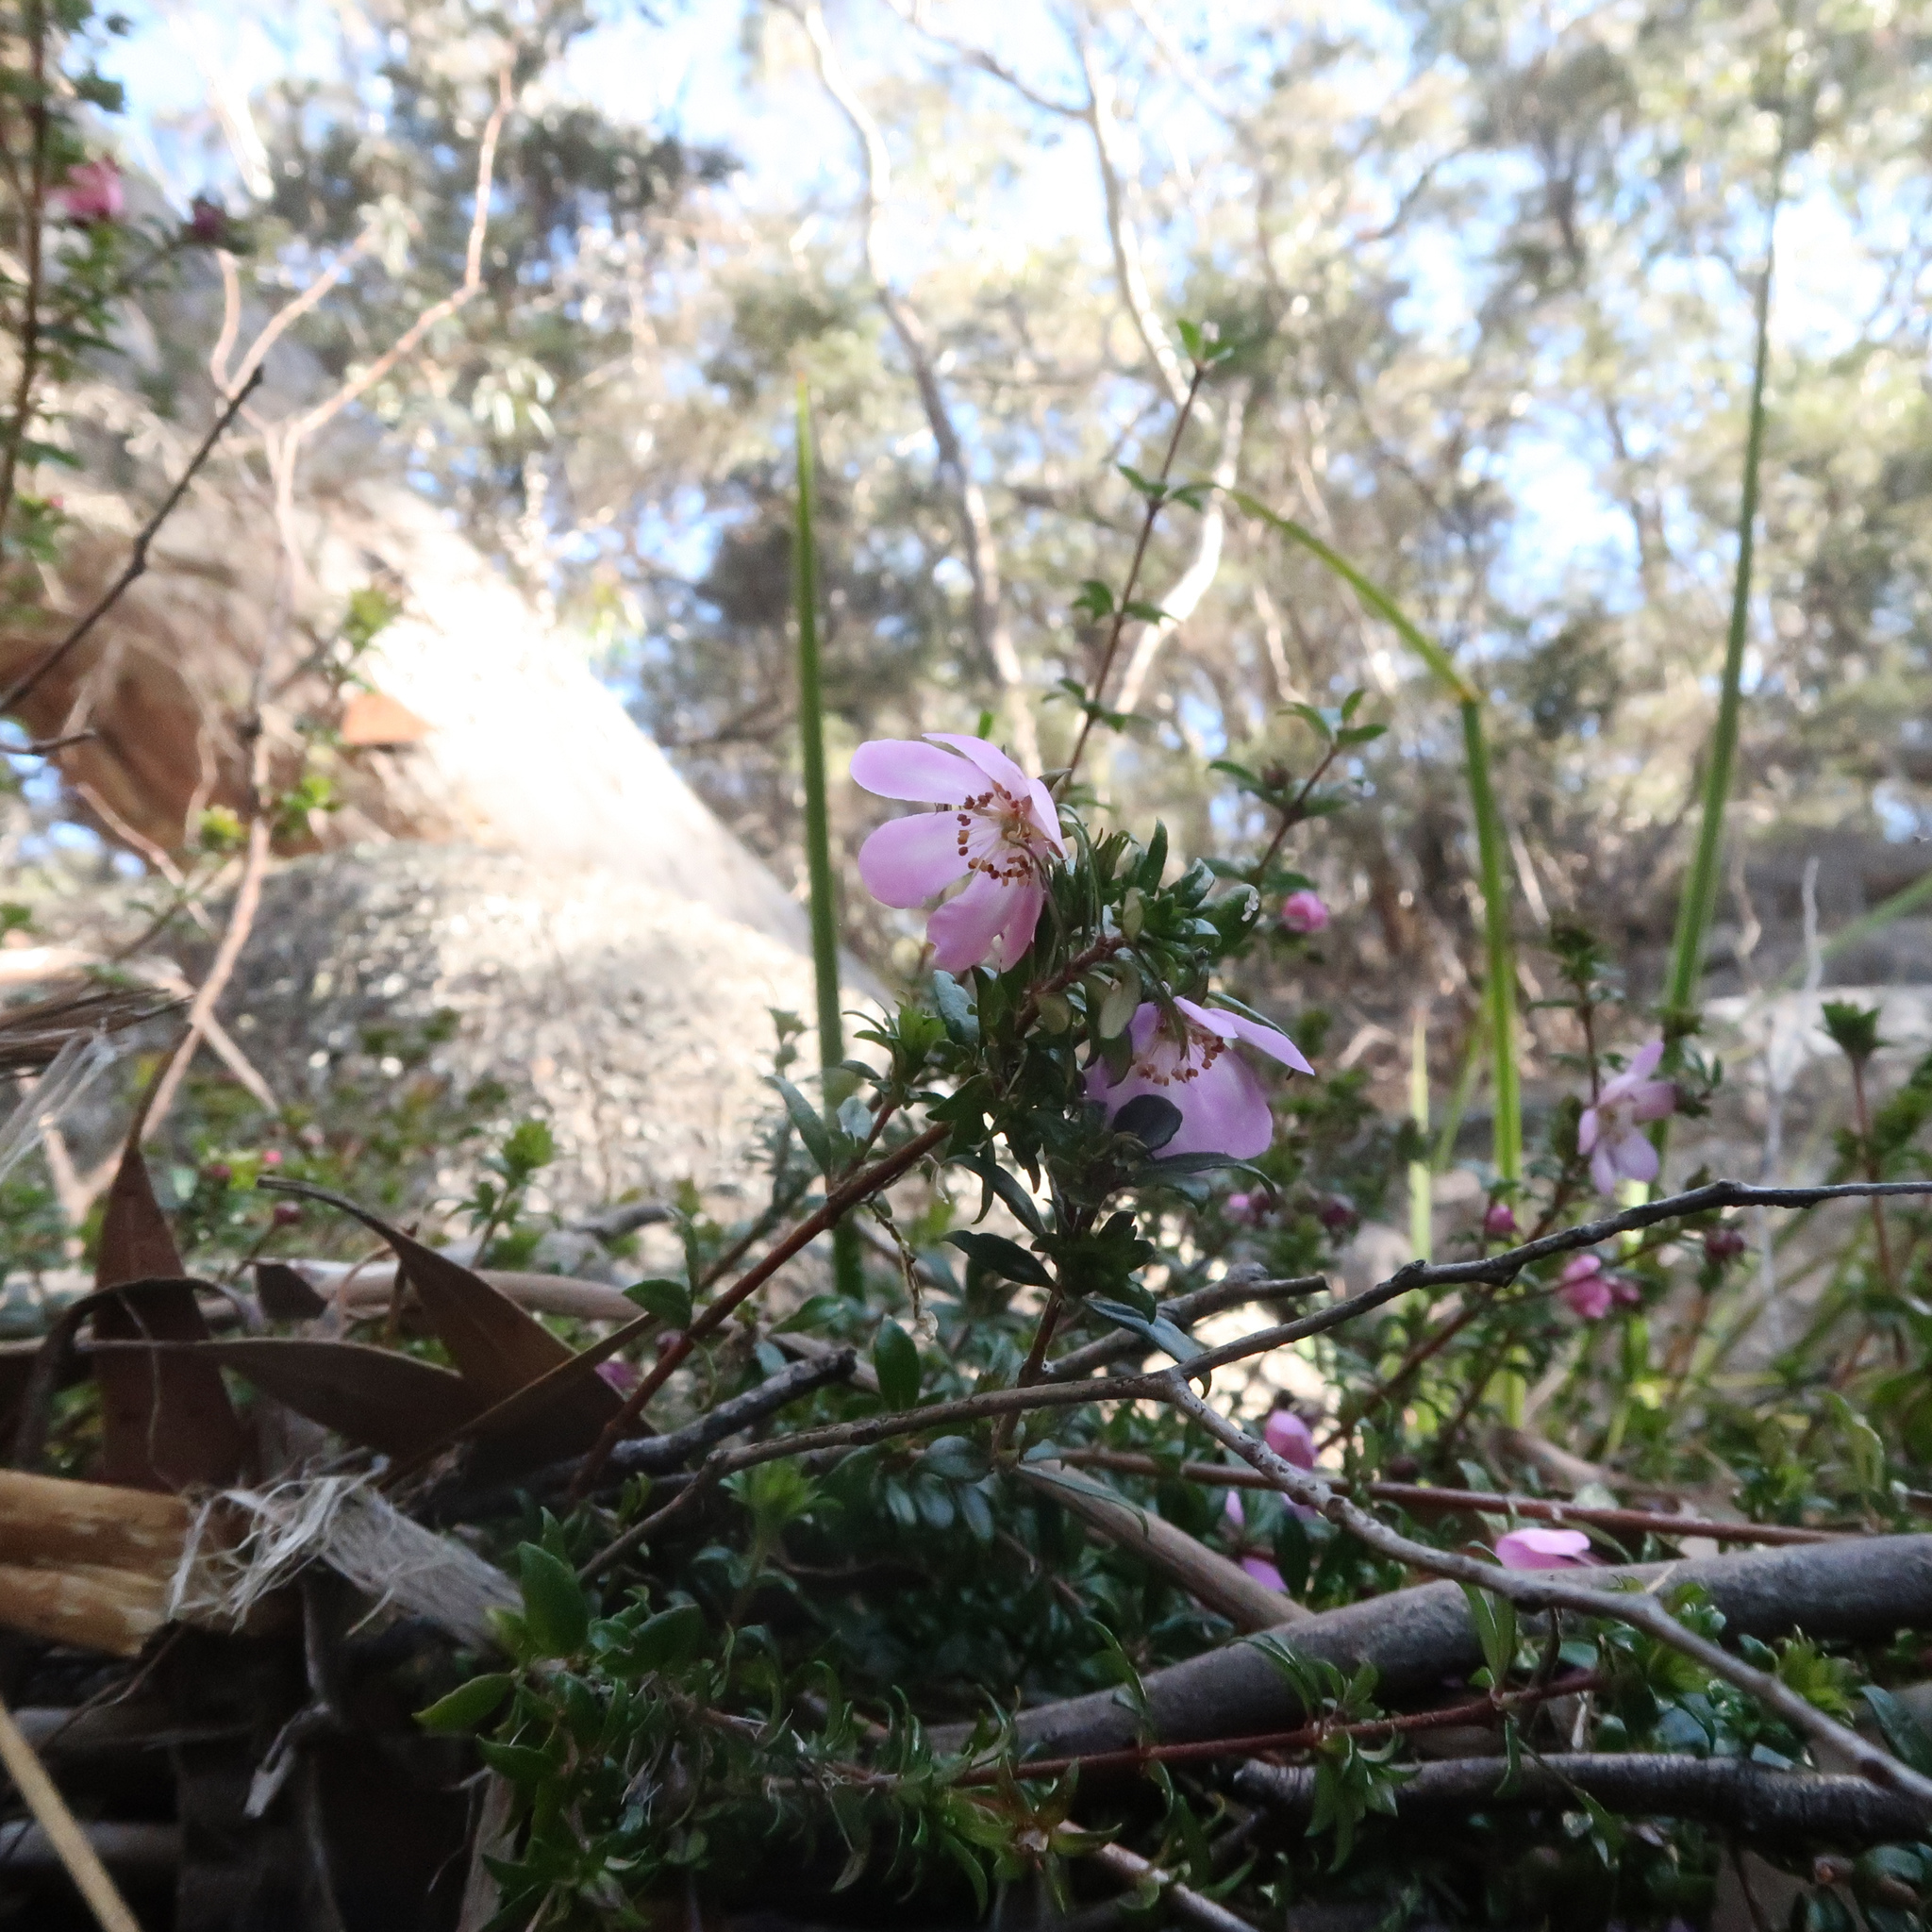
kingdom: Plantae
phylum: Tracheophyta
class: Magnoliopsida
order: Oxalidales
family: Cunoniaceae
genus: Bauera
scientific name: Bauera rubioides
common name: River-rose
